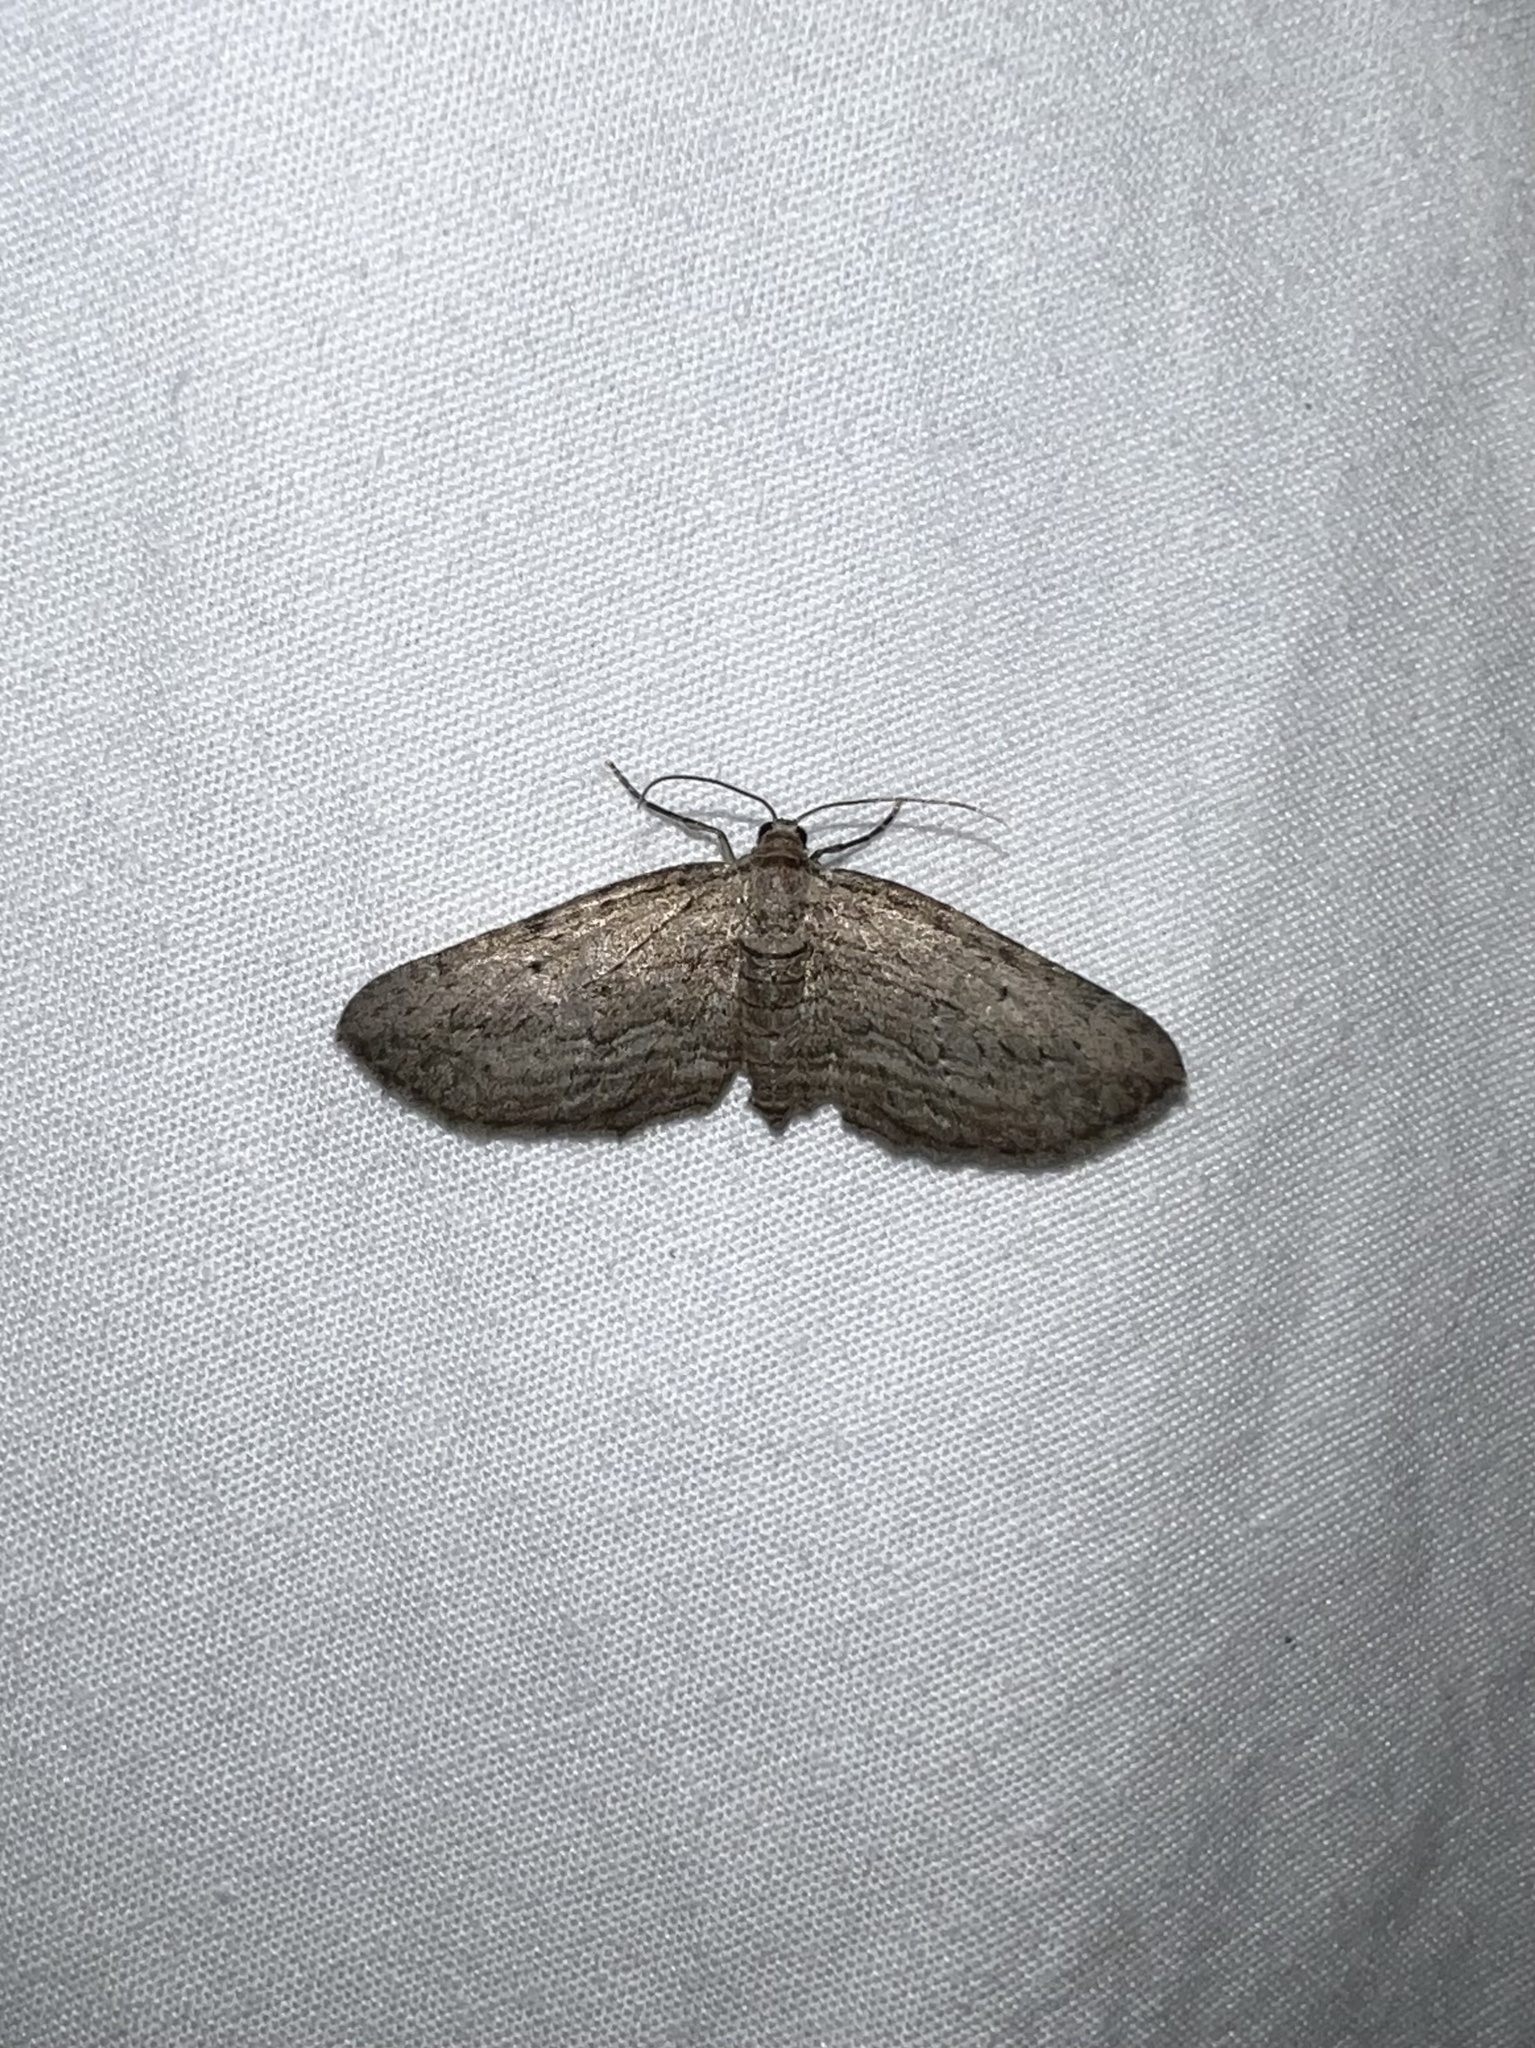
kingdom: Animalia
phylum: Arthropoda
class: Insecta
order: Lepidoptera
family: Geometridae
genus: Horisme
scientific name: Horisme intestinata
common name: Brown bark carpet
